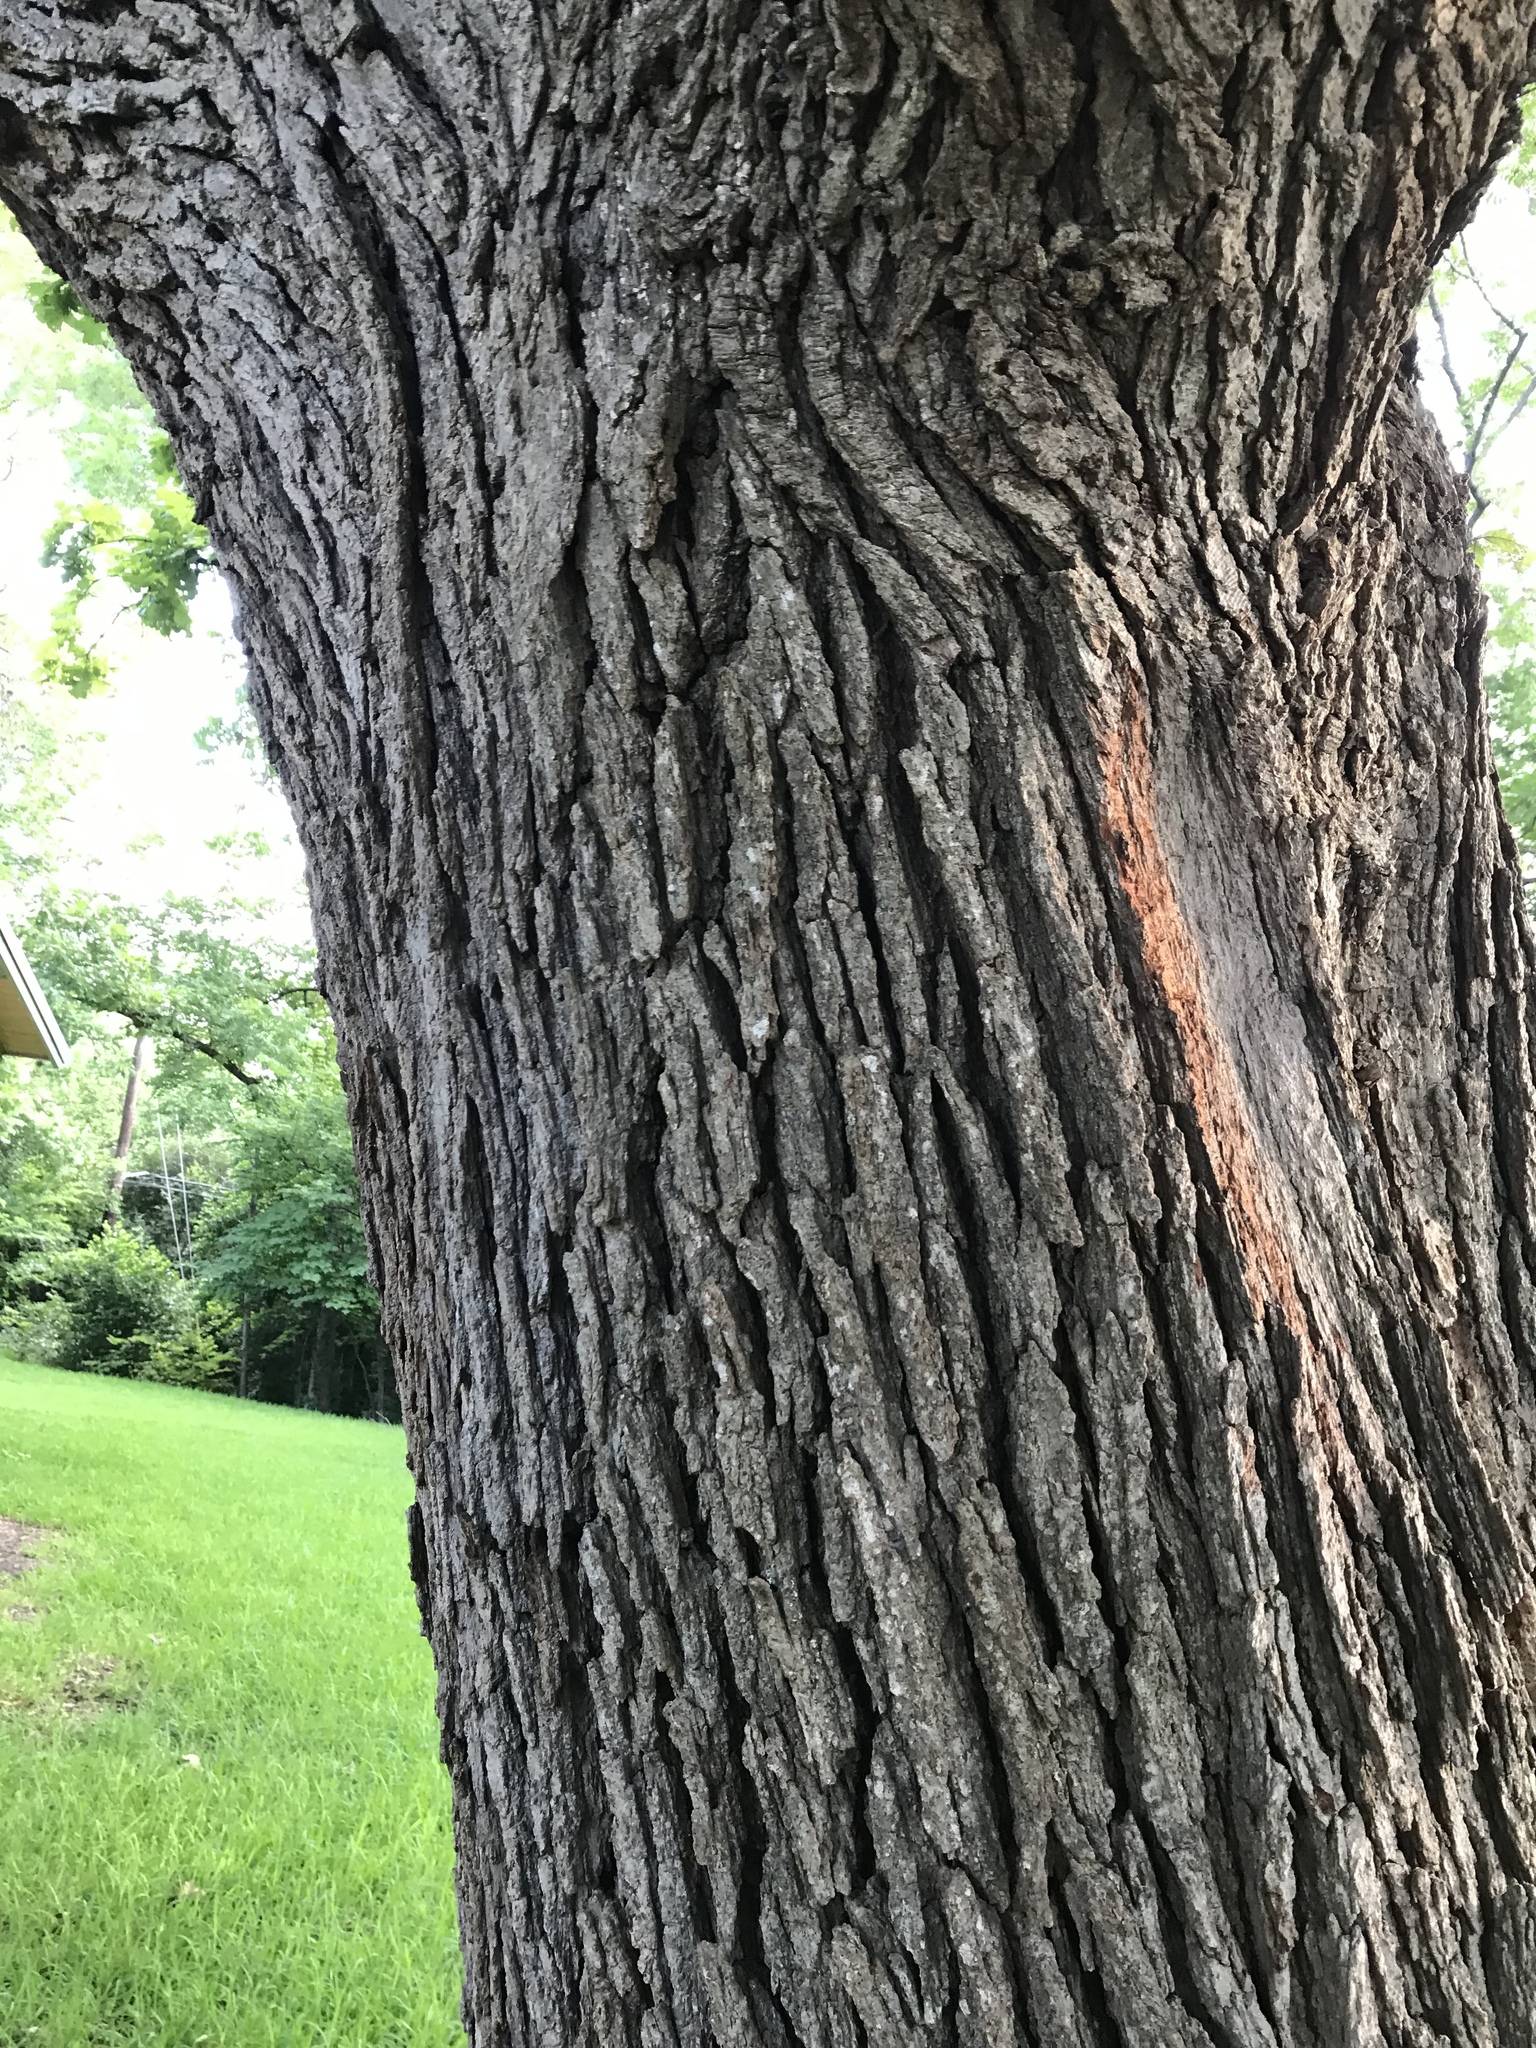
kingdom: Plantae
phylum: Tracheophyta
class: Magnoliopsida
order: Fagales
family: Fagaceae
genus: Quercus
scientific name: Quercus macrocarpa
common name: Bur oak
